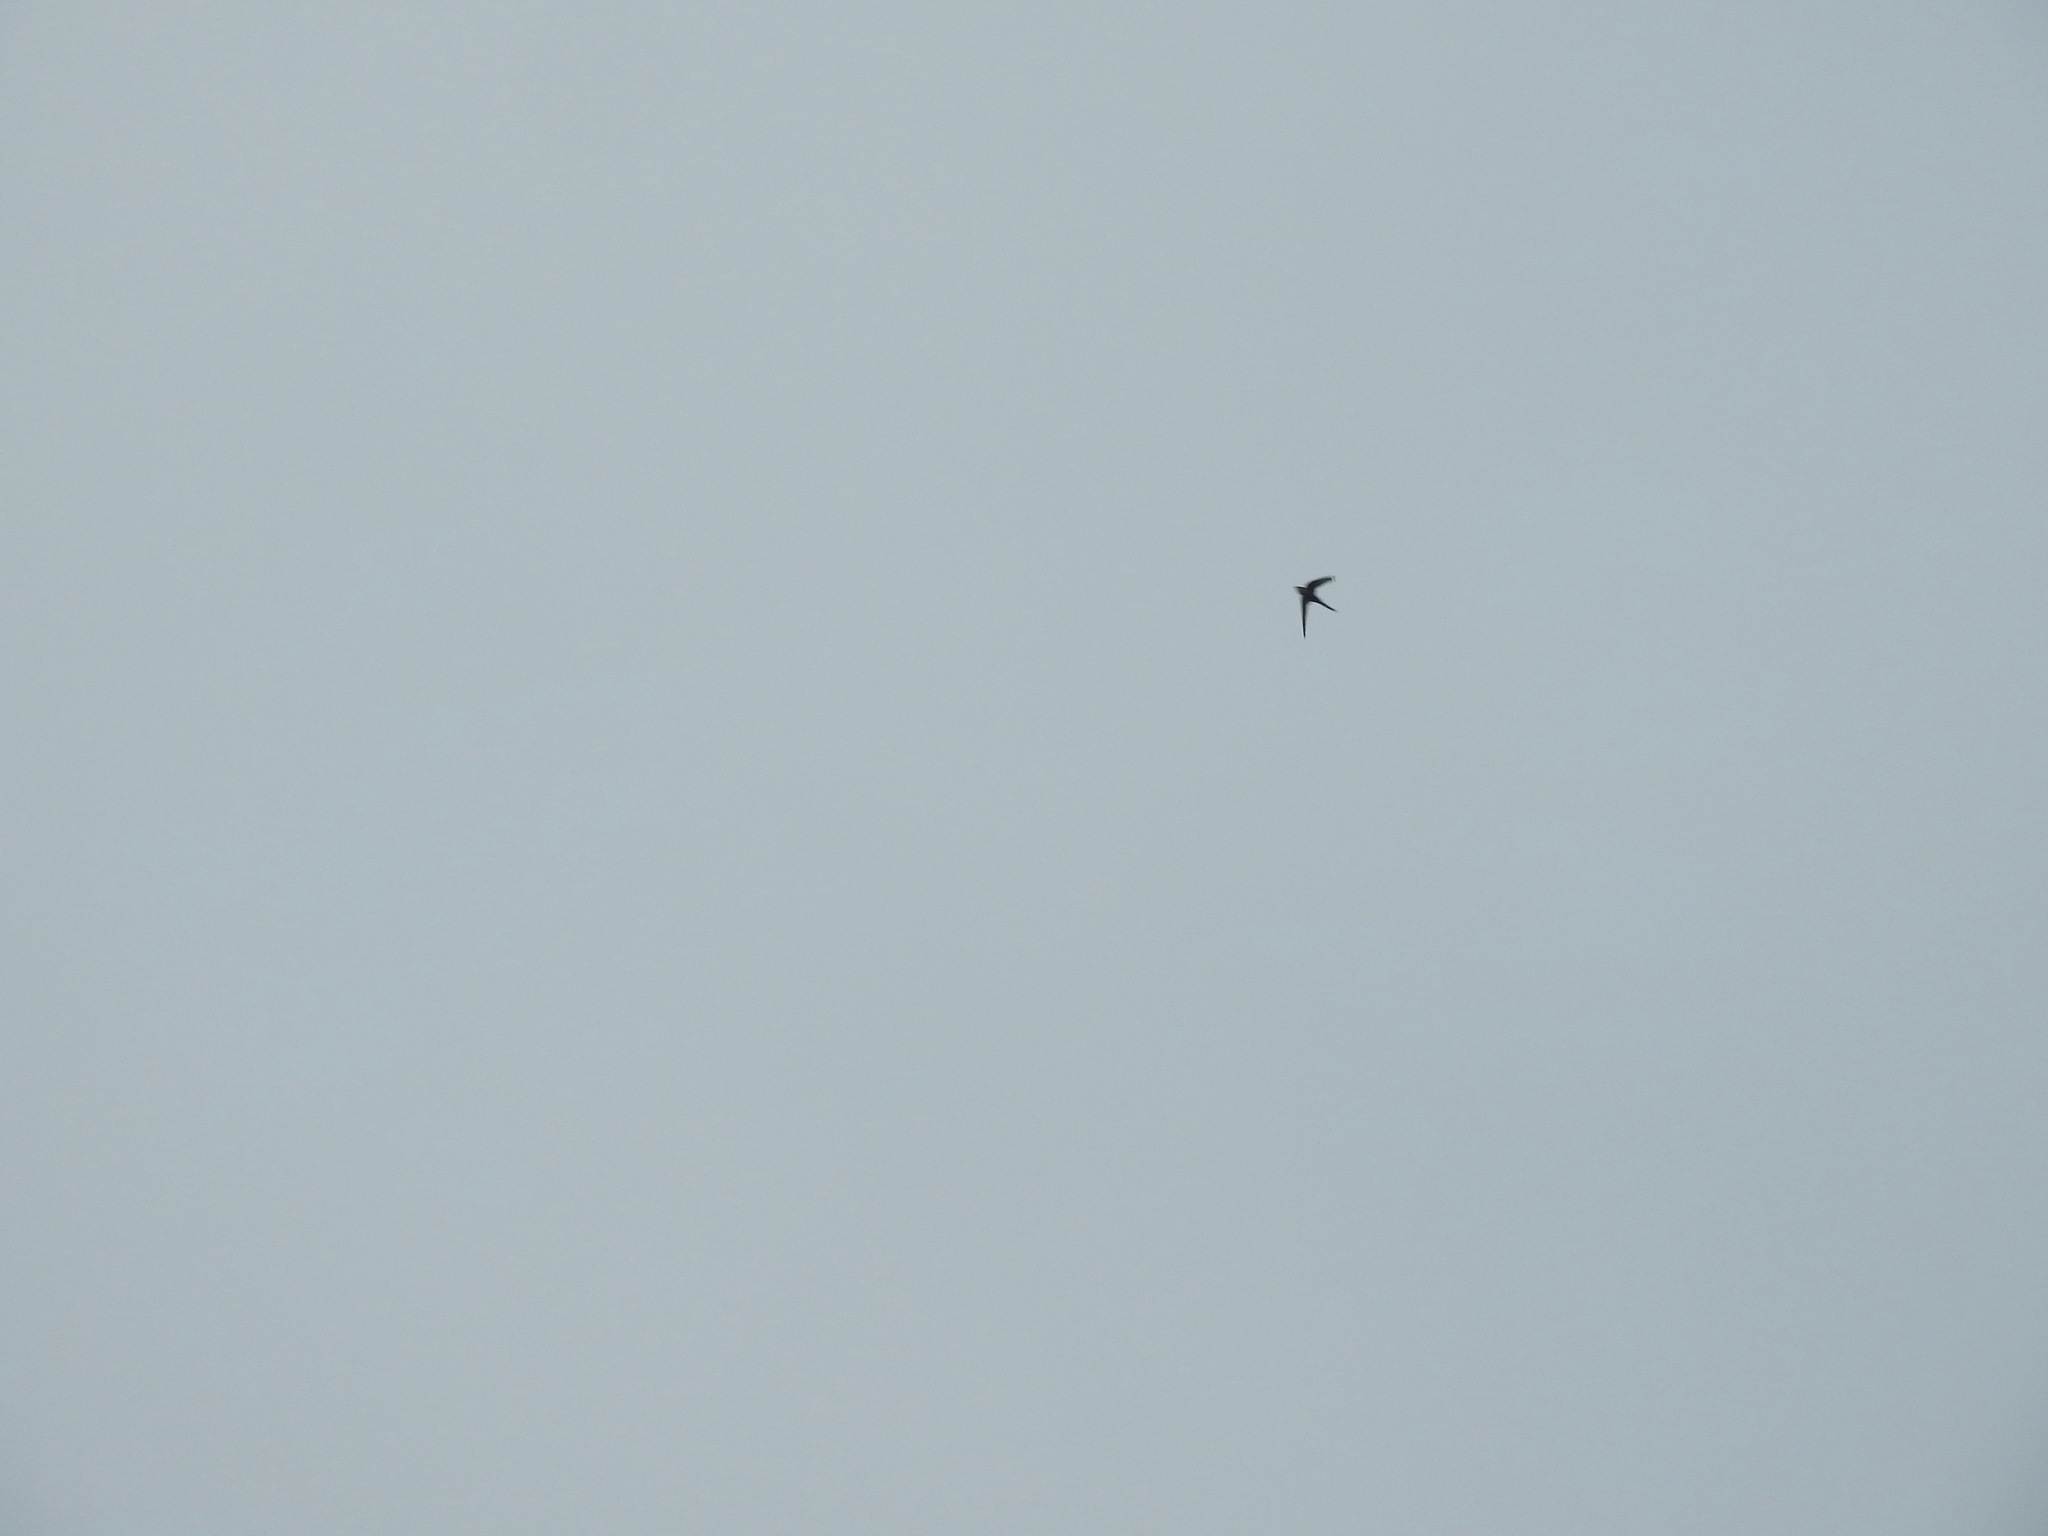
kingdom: Animalia
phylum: Chordata
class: Aves
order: Apodiformes
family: Apodidae
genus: Cypsiurus
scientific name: Cypsiurus balasiensis
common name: Asian palm swift
